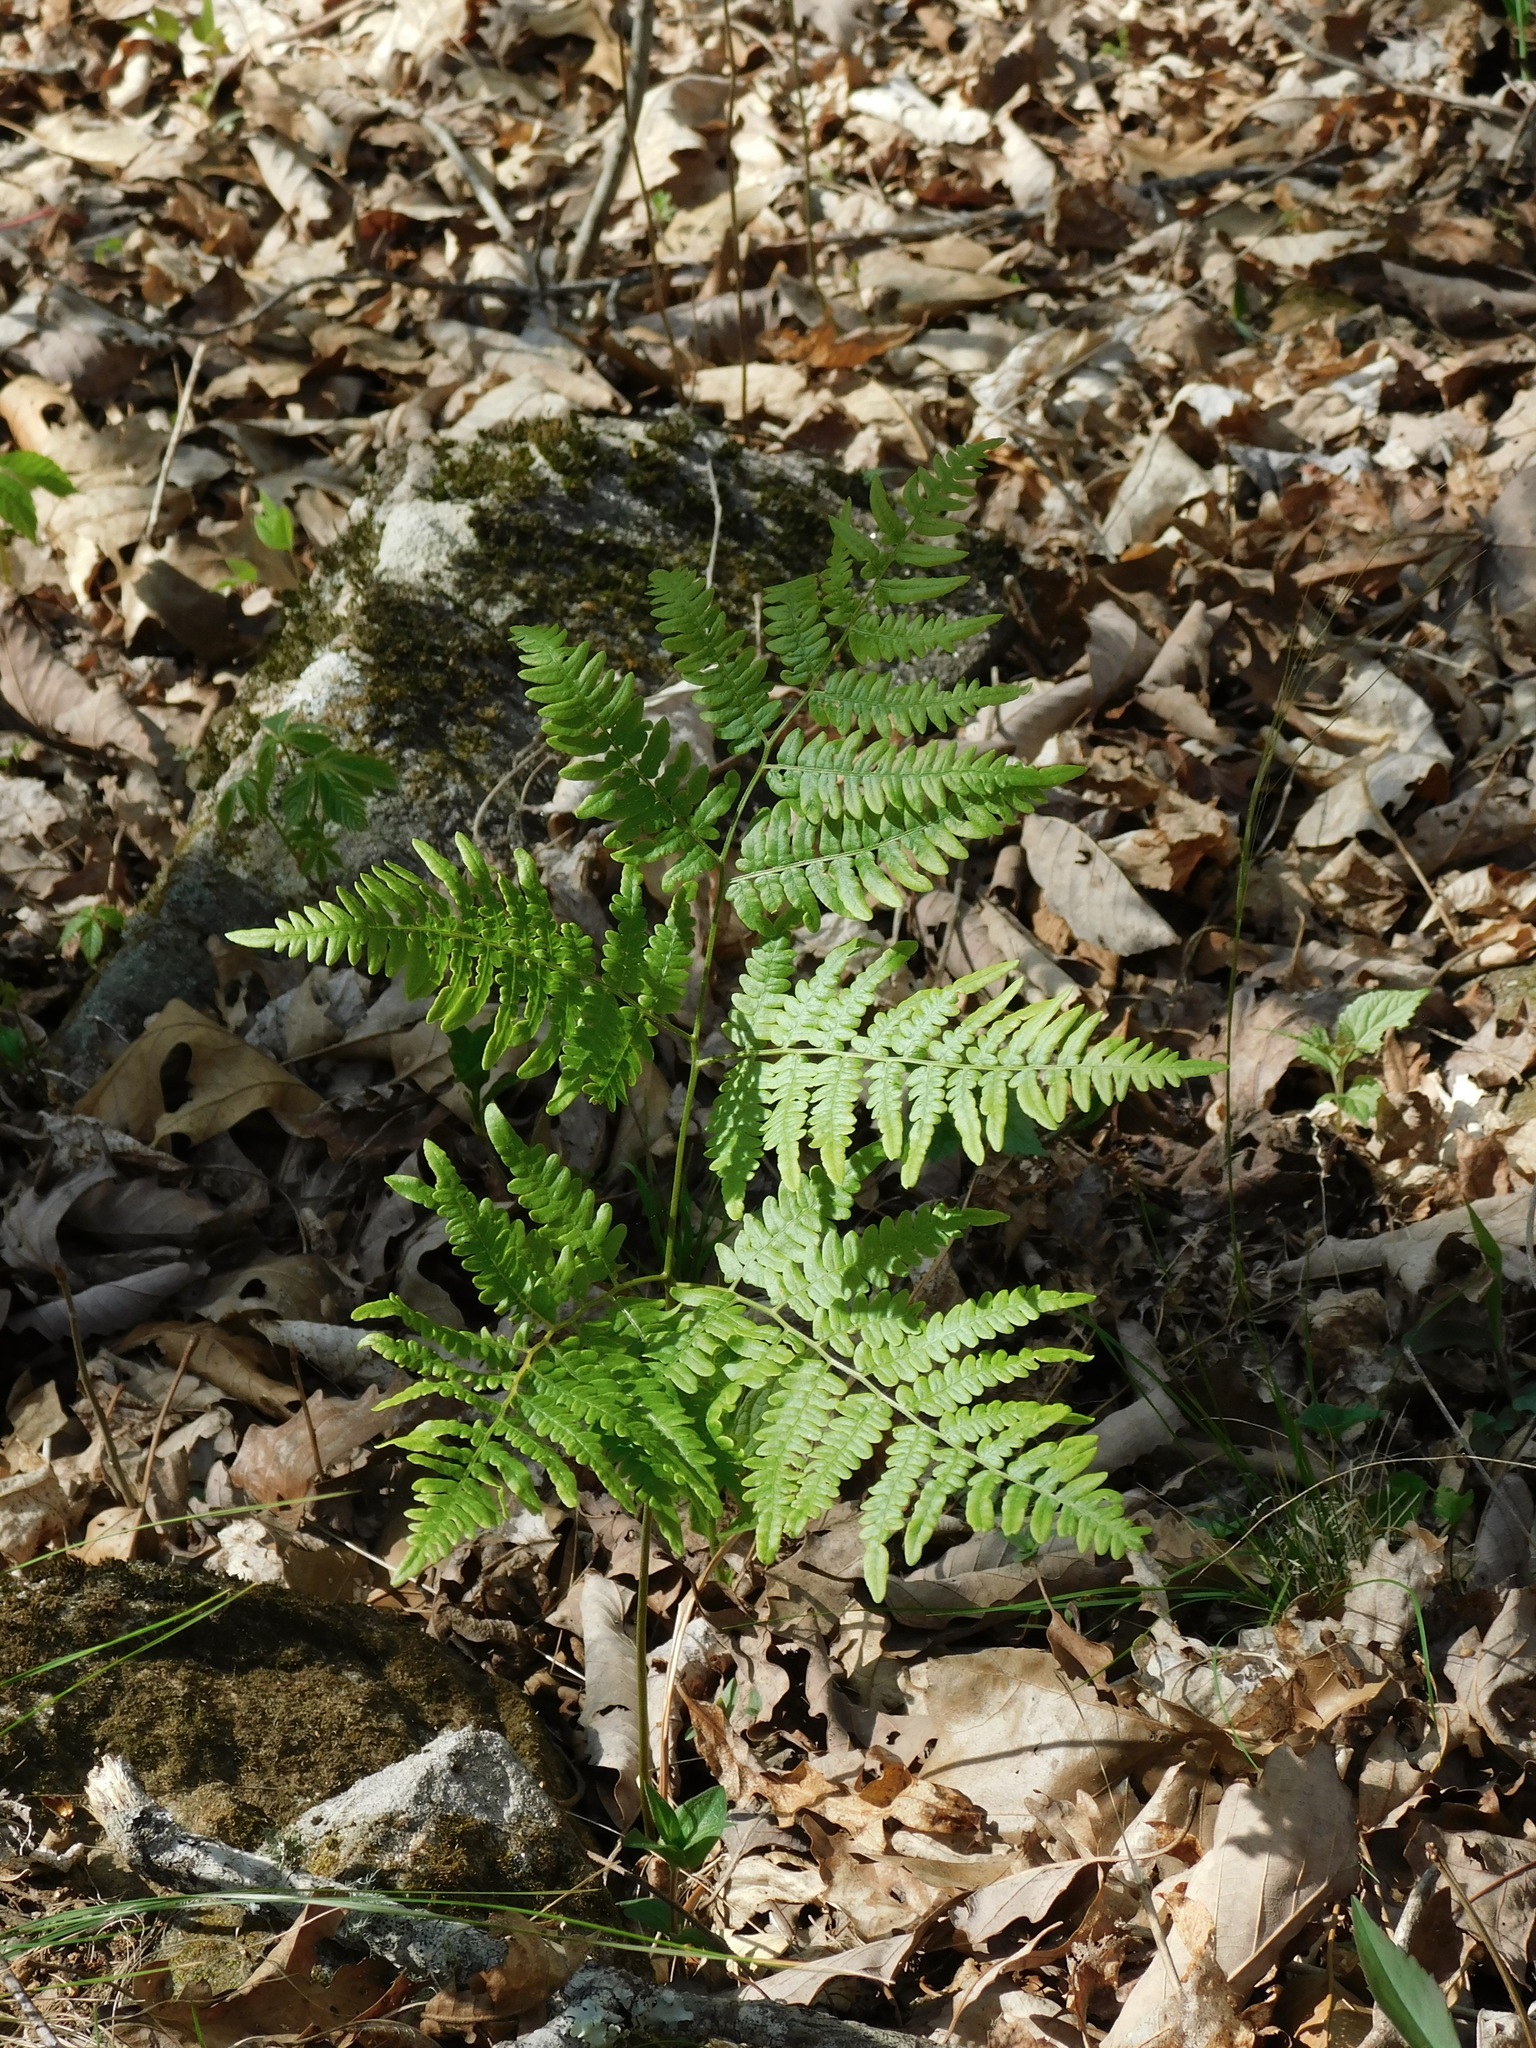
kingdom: Plantae
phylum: Tracheophyta
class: Polypodiopsida
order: Polypodiales
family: Dennstaedtiaceae
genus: Pteridium
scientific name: Pteridium aquilinum
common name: Bracken
